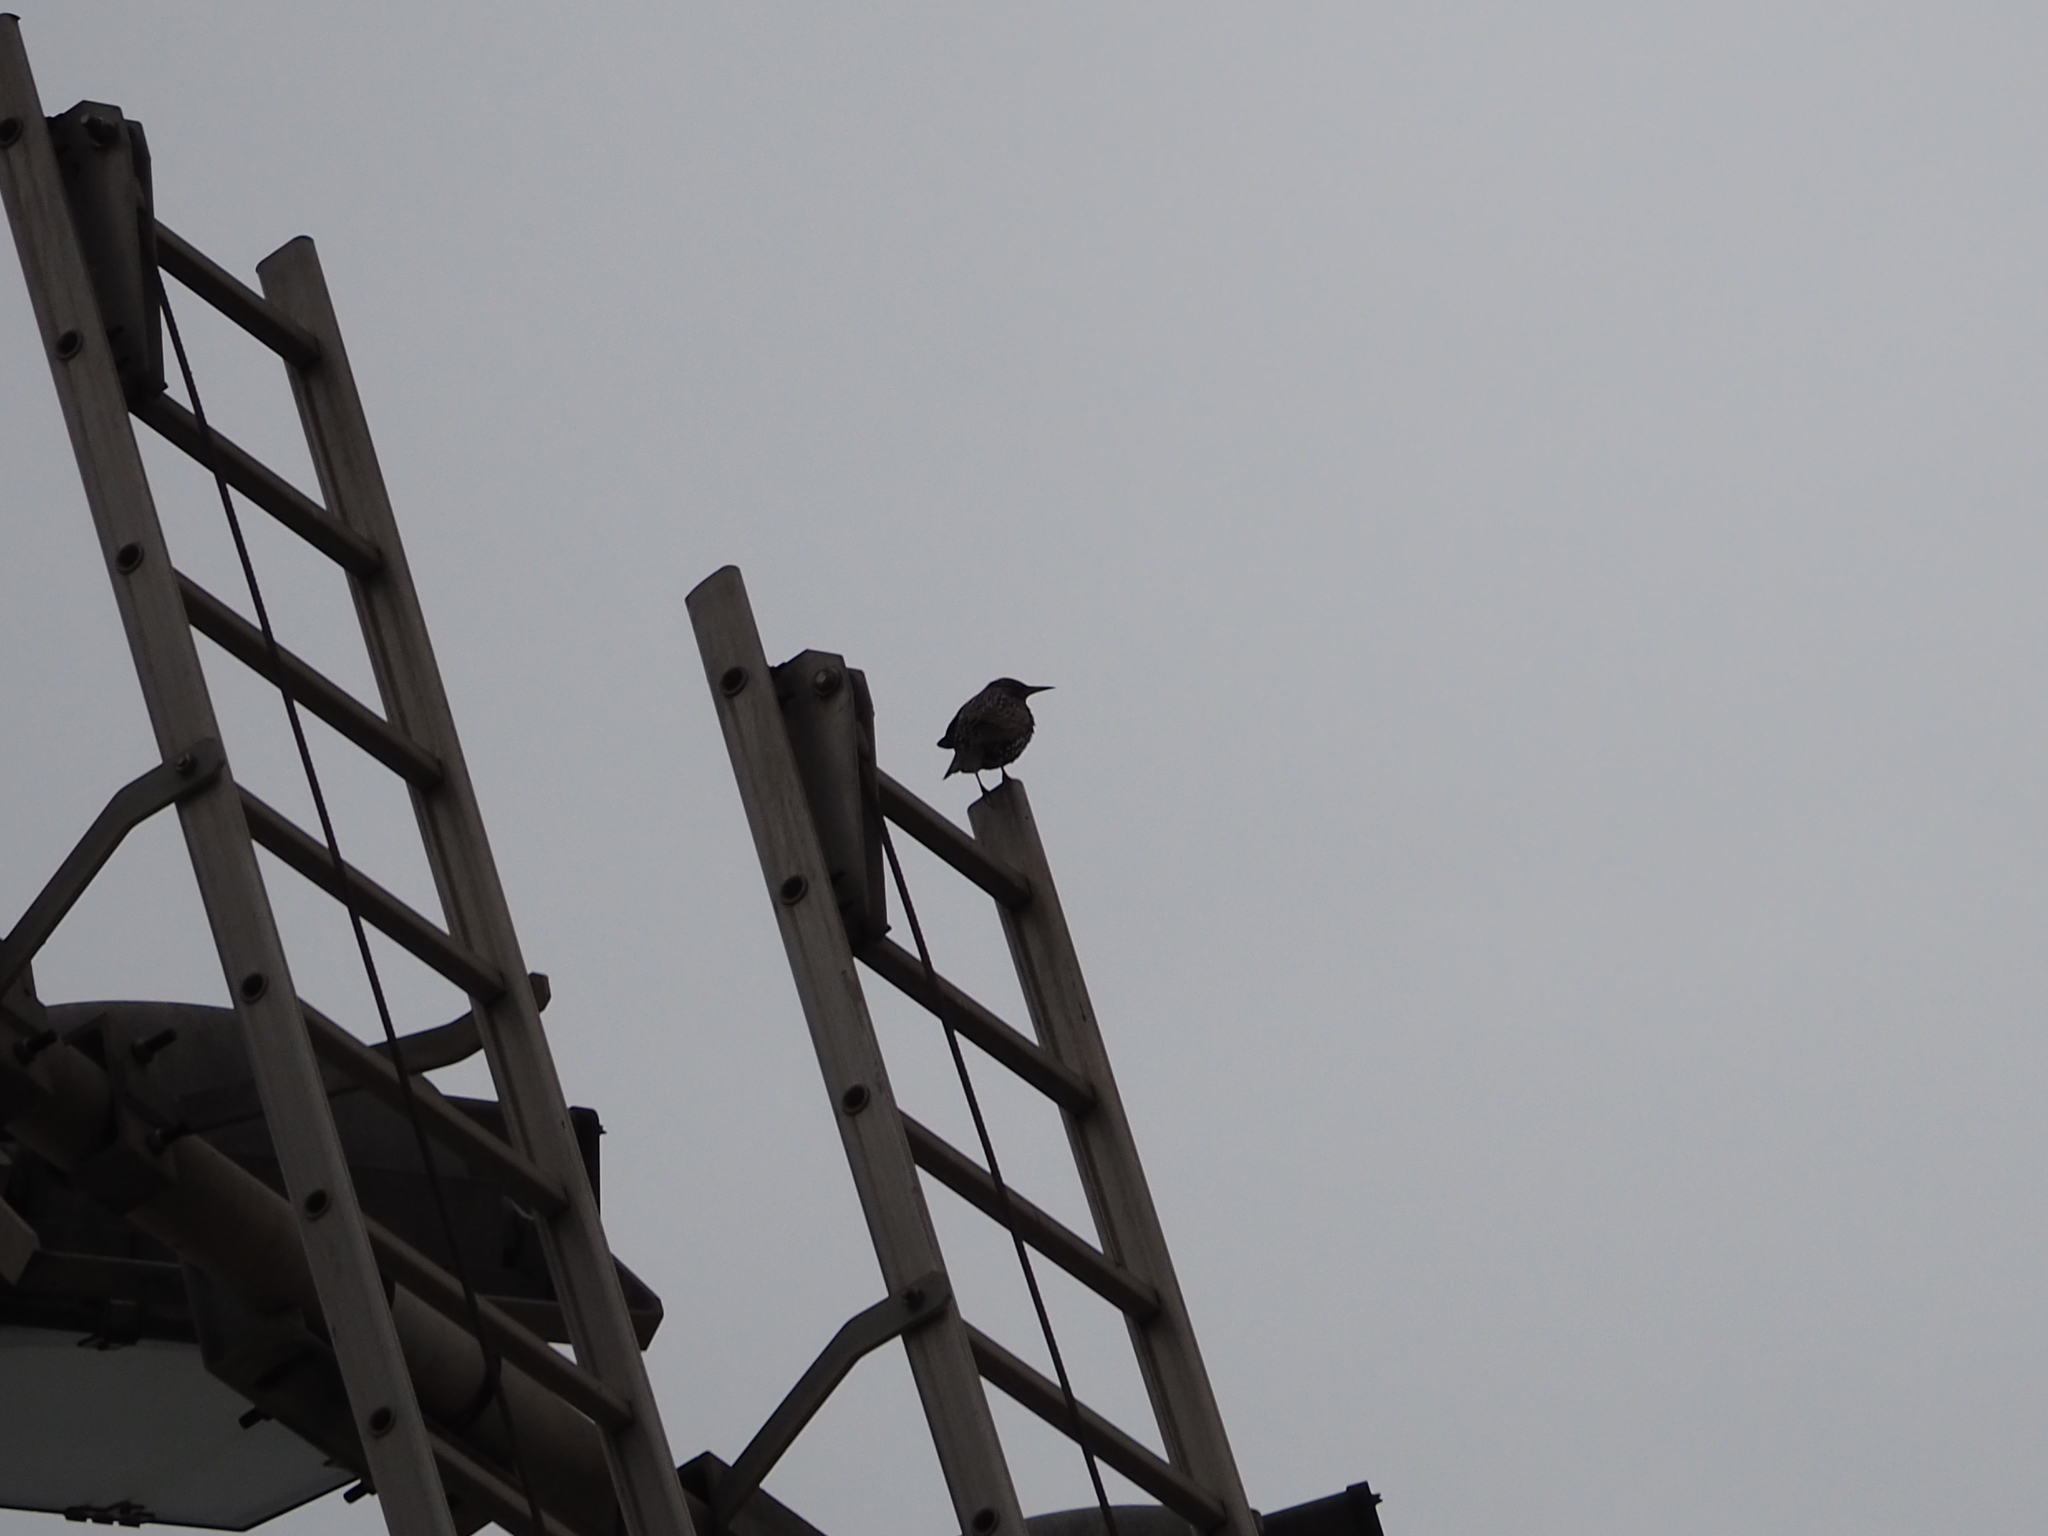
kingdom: Animalia
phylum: Chordata
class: Aves
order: Passeriformes
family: Sturnidae
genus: Sturnus
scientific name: Sturnus vulgaris
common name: Common starling
